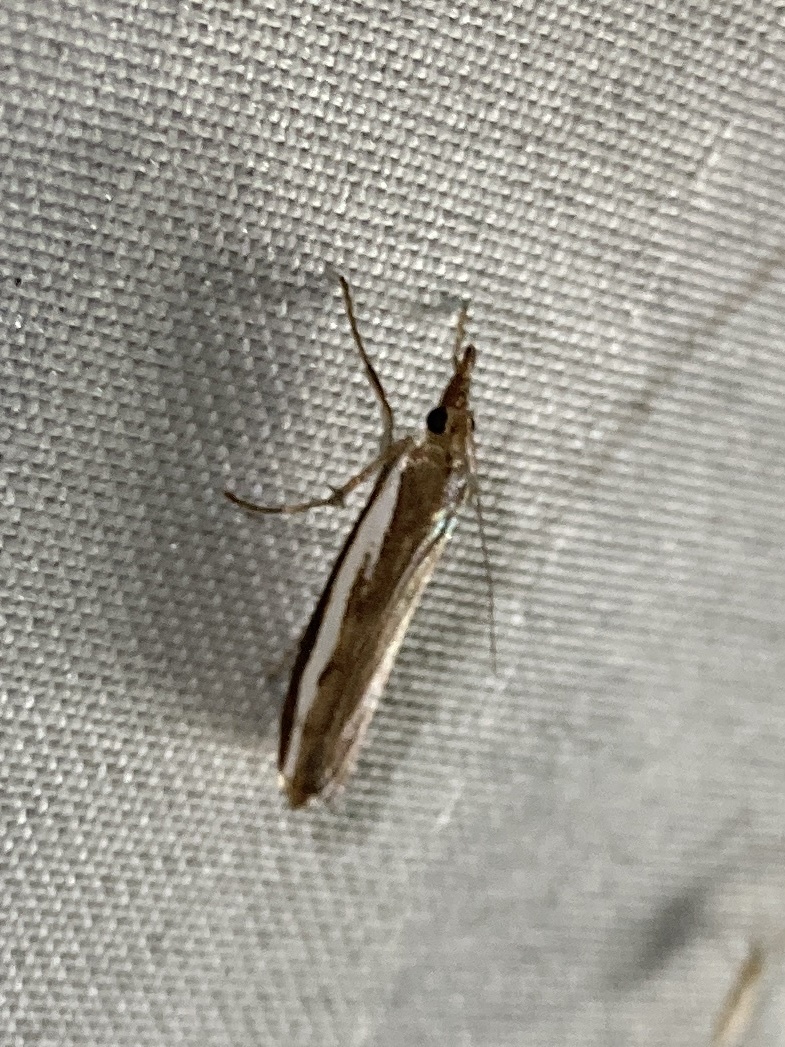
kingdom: Animalia
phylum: Arthropoda
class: Insecta
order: Lepidoptera
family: Crambidae
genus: Orocrambus
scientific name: Orocrambus flexuosellus
